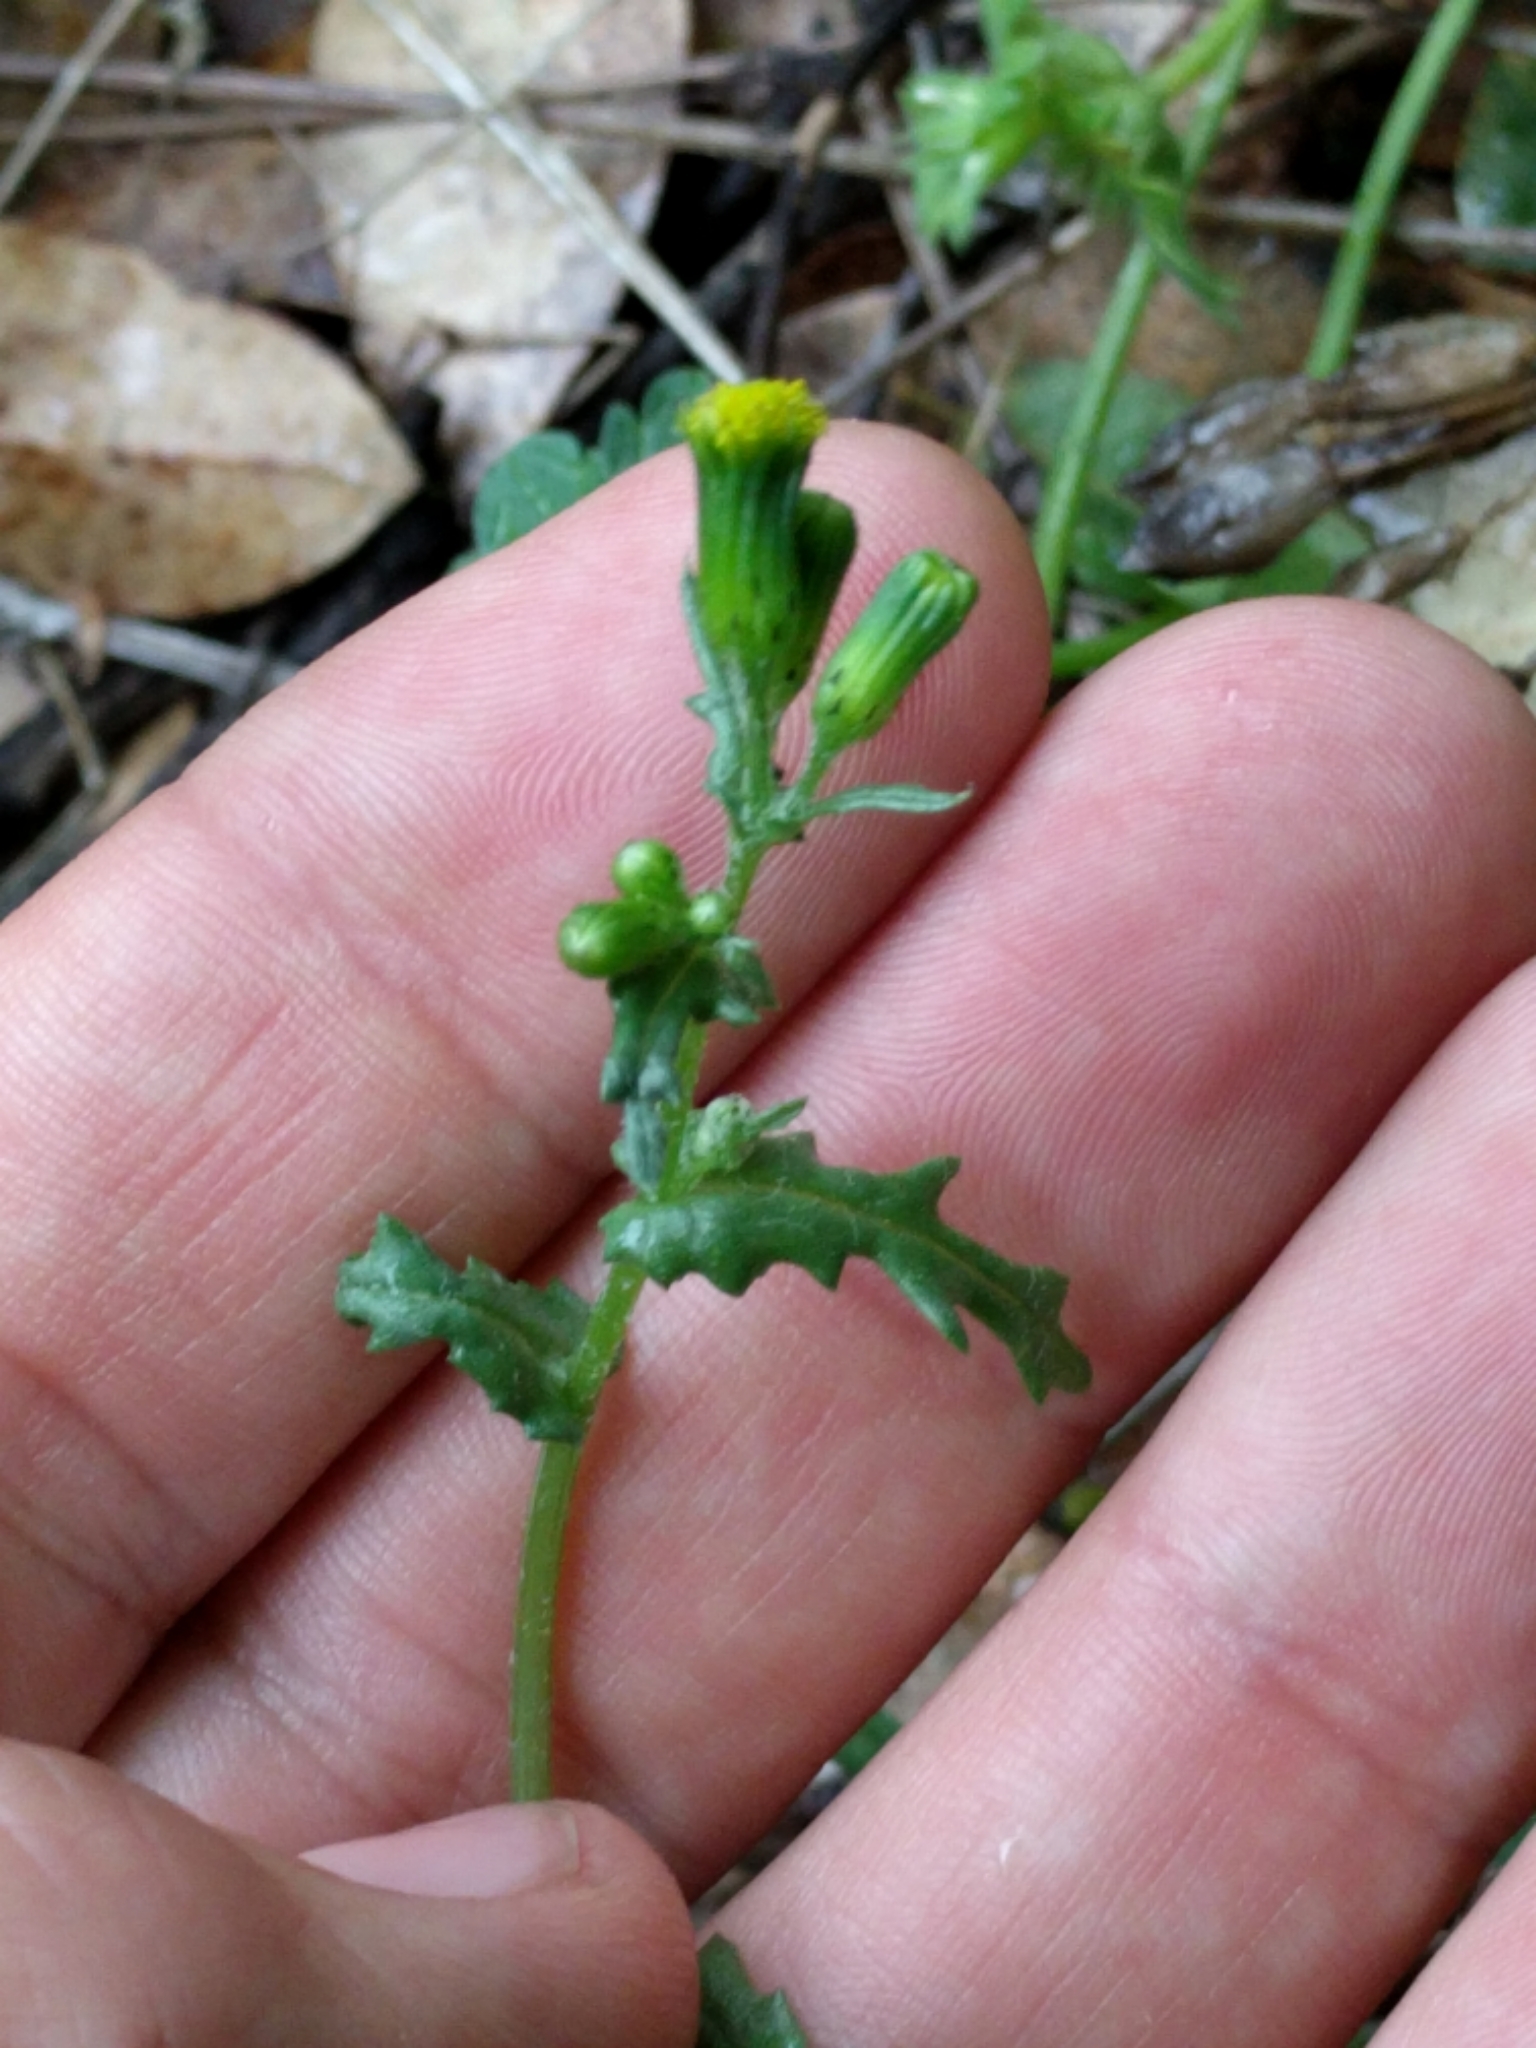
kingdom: Plantae
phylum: Tracheophyta
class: Magnoliopsida
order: Asterales
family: Asteraceae
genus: Senecio
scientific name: Senecio vulgaris
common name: Old-man-in-the-spring
